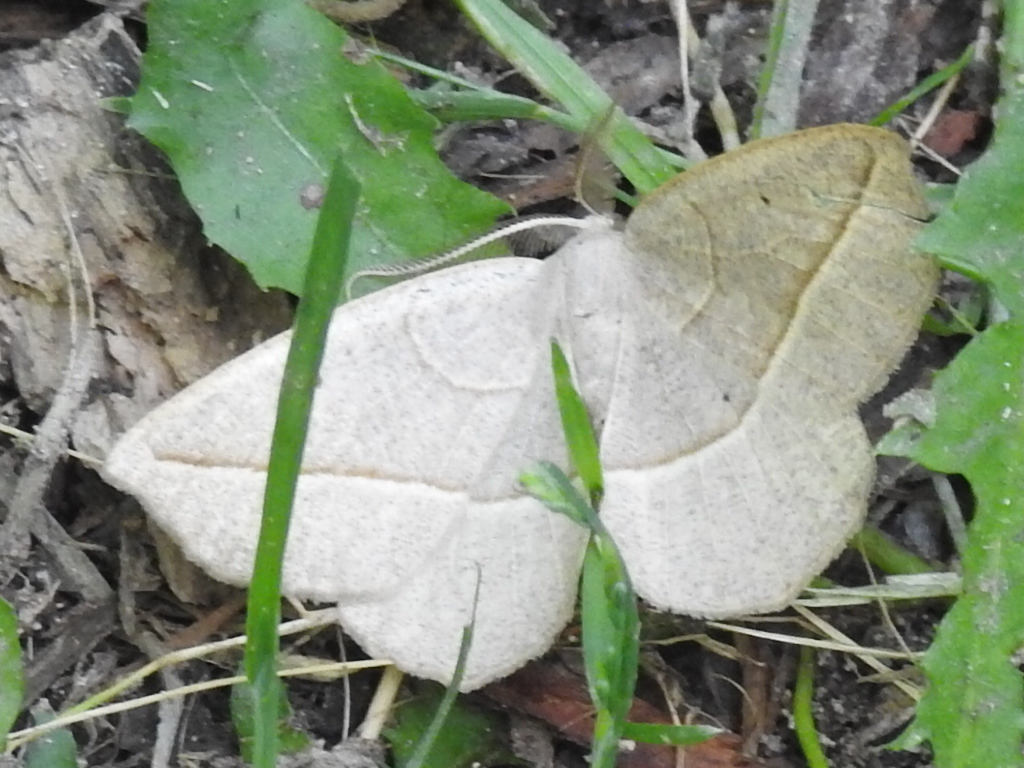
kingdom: Animalia
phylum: Arthropoda
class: Insecta
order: Lepidoptera
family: Geometridae
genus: Eusarca
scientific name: Eusarca confusaria
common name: Confused eusarca
